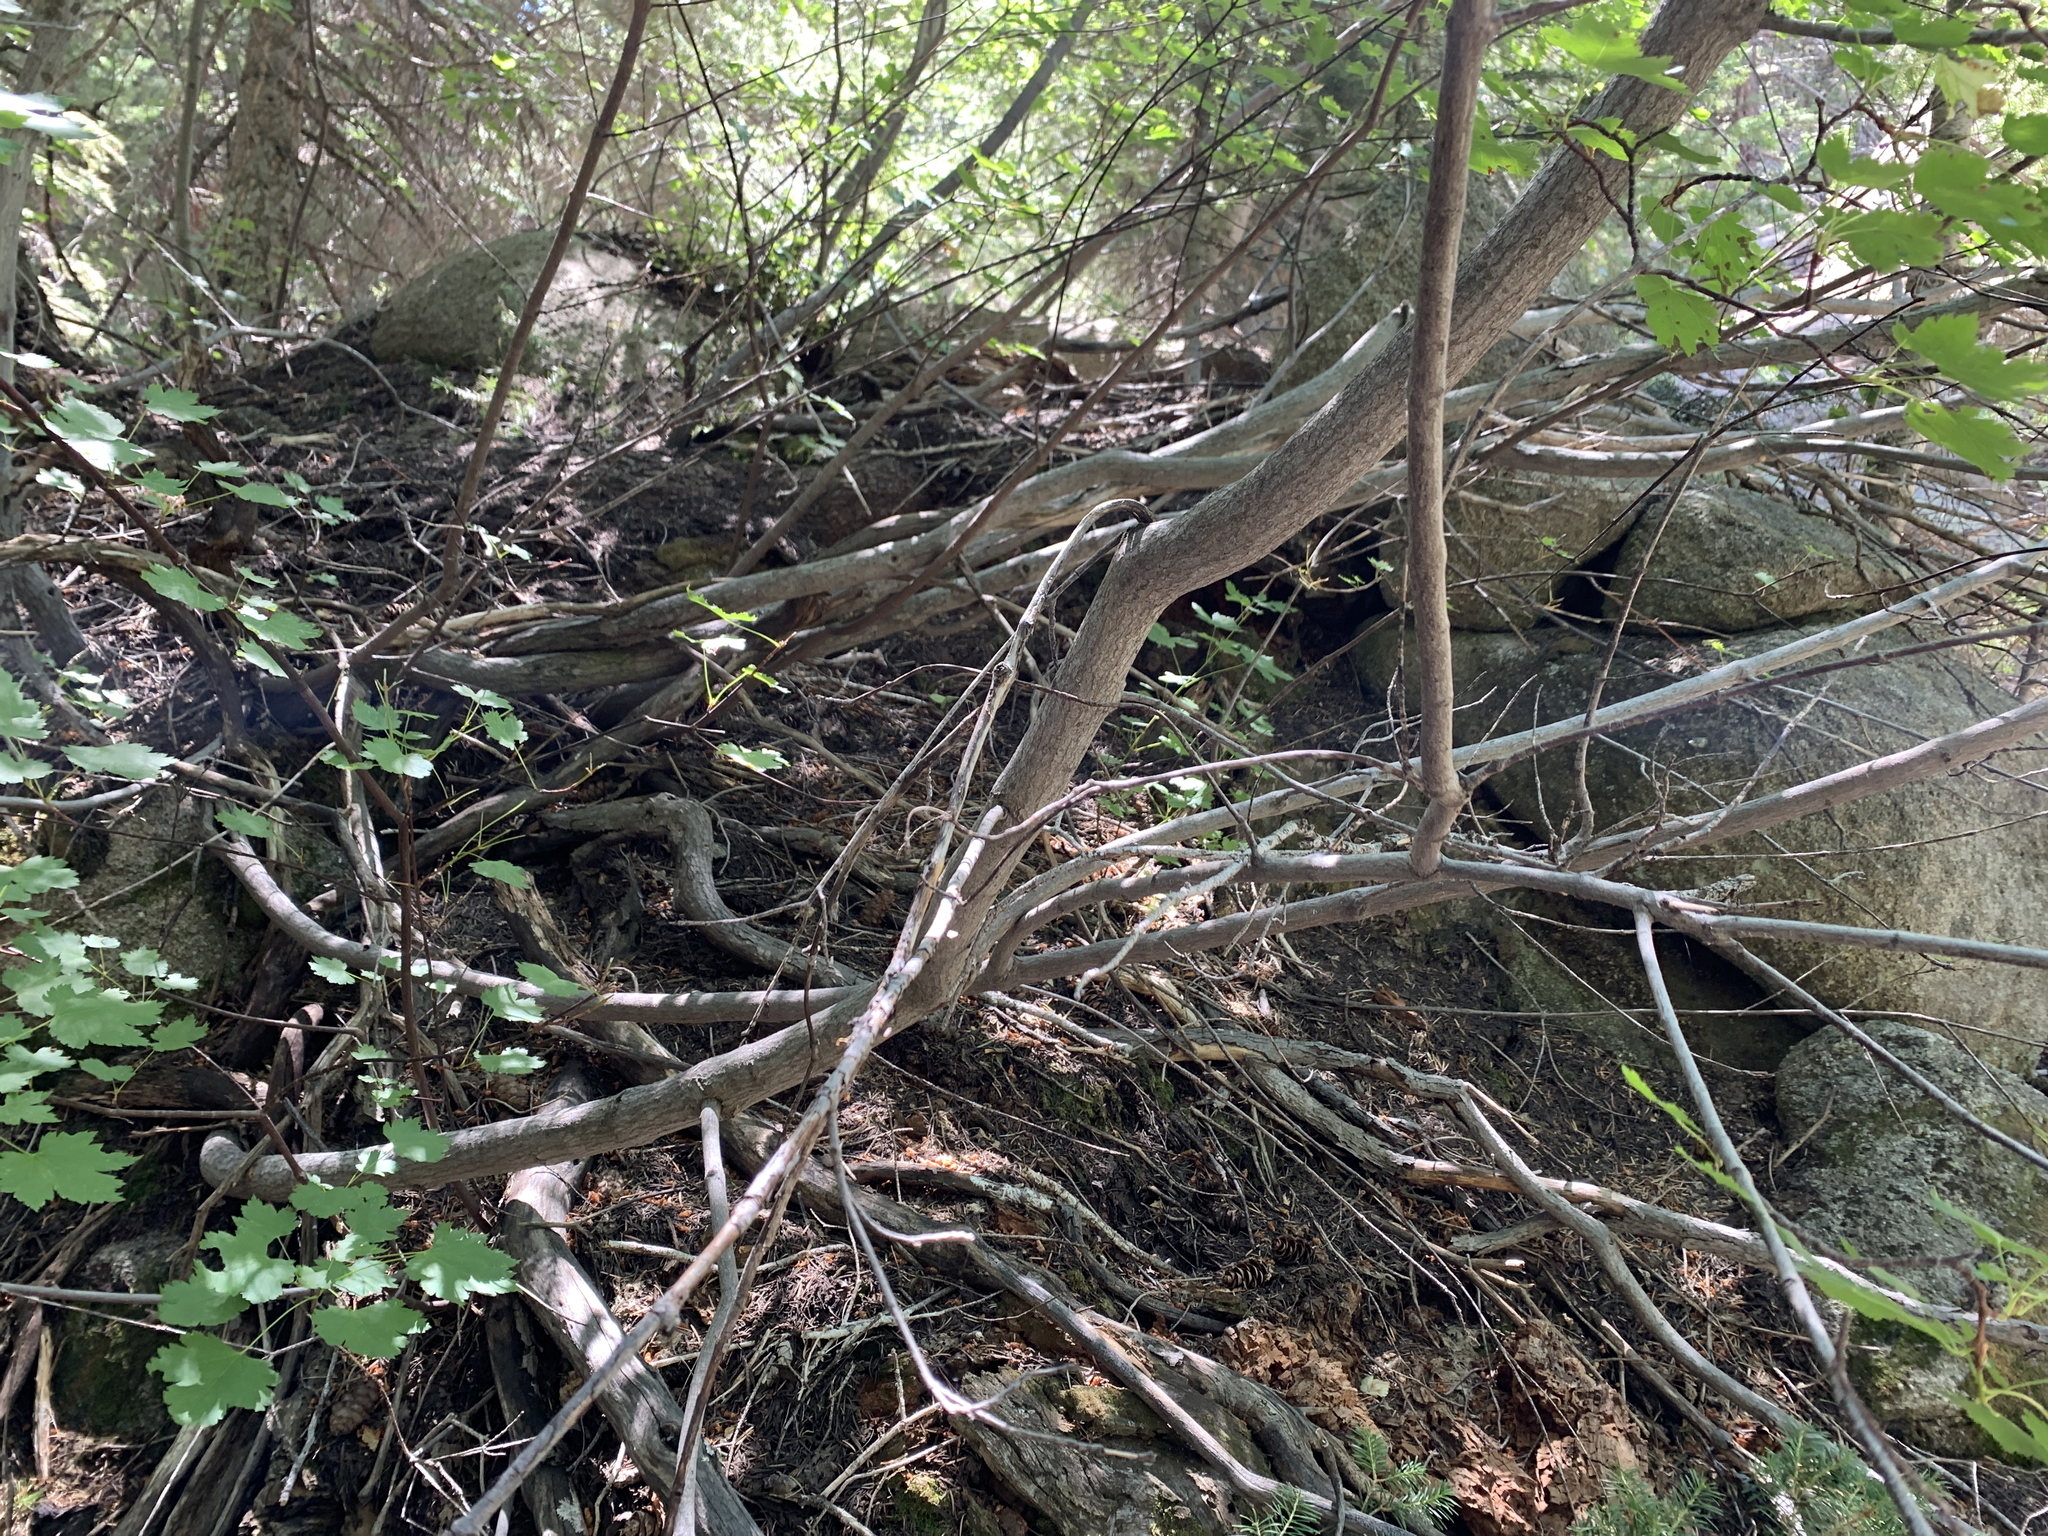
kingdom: Plantae
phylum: Tracheophyta
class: Magnoliopsida
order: Sapindales
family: Sapindaceae
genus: Acer
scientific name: Acer glabrum
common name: Rocky mountain maple
